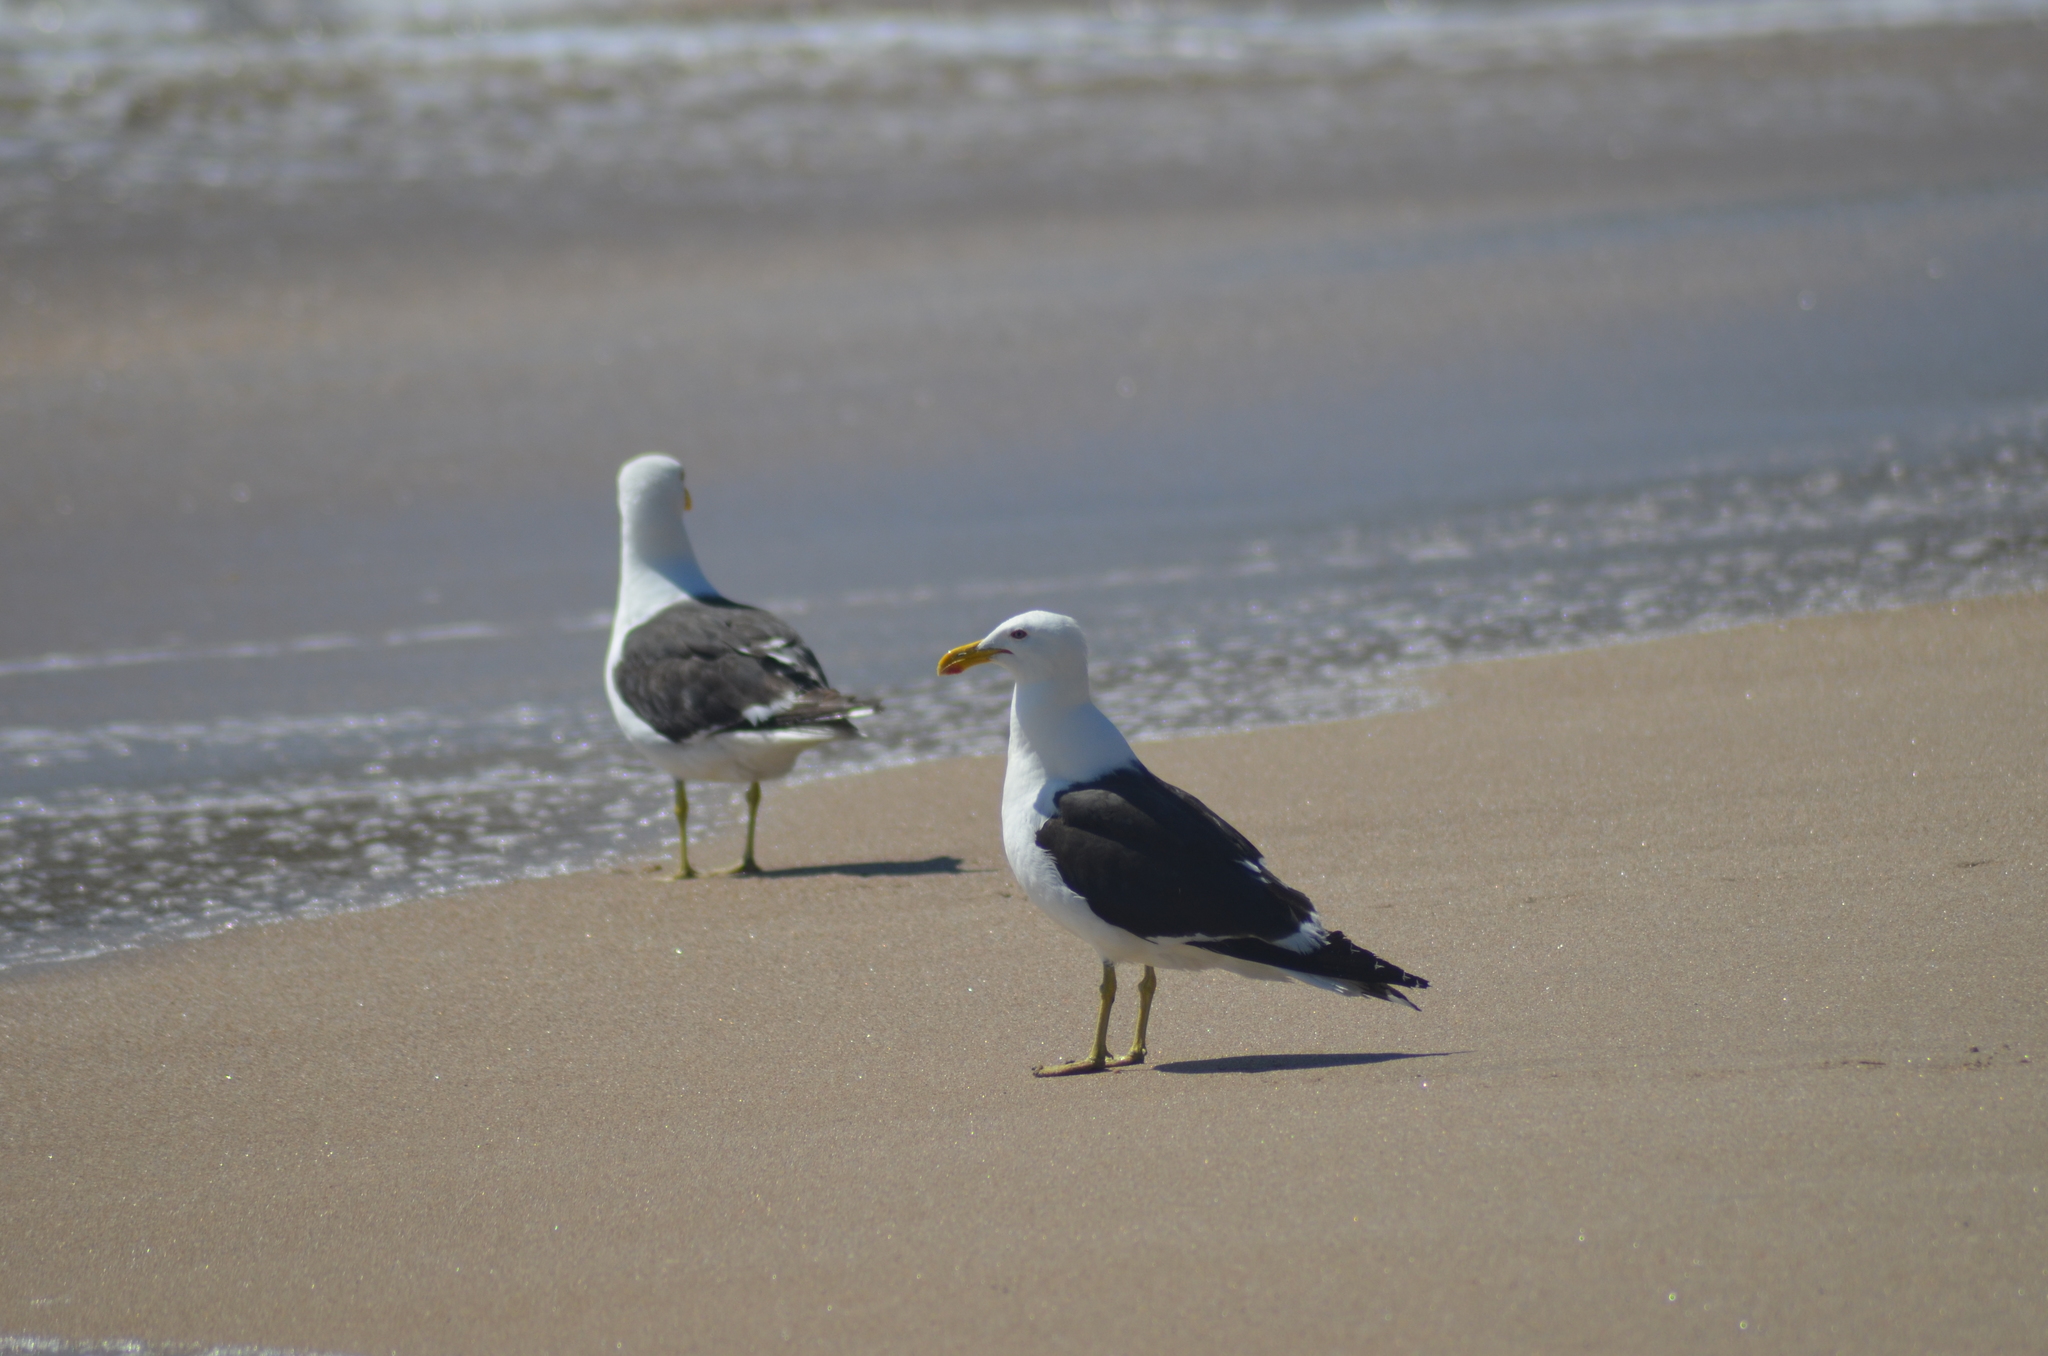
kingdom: Animalia
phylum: Chordata
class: Aves
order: Charadriiformes
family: Laridae
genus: Larus
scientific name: Larus dominicanus
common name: Kelp gull
